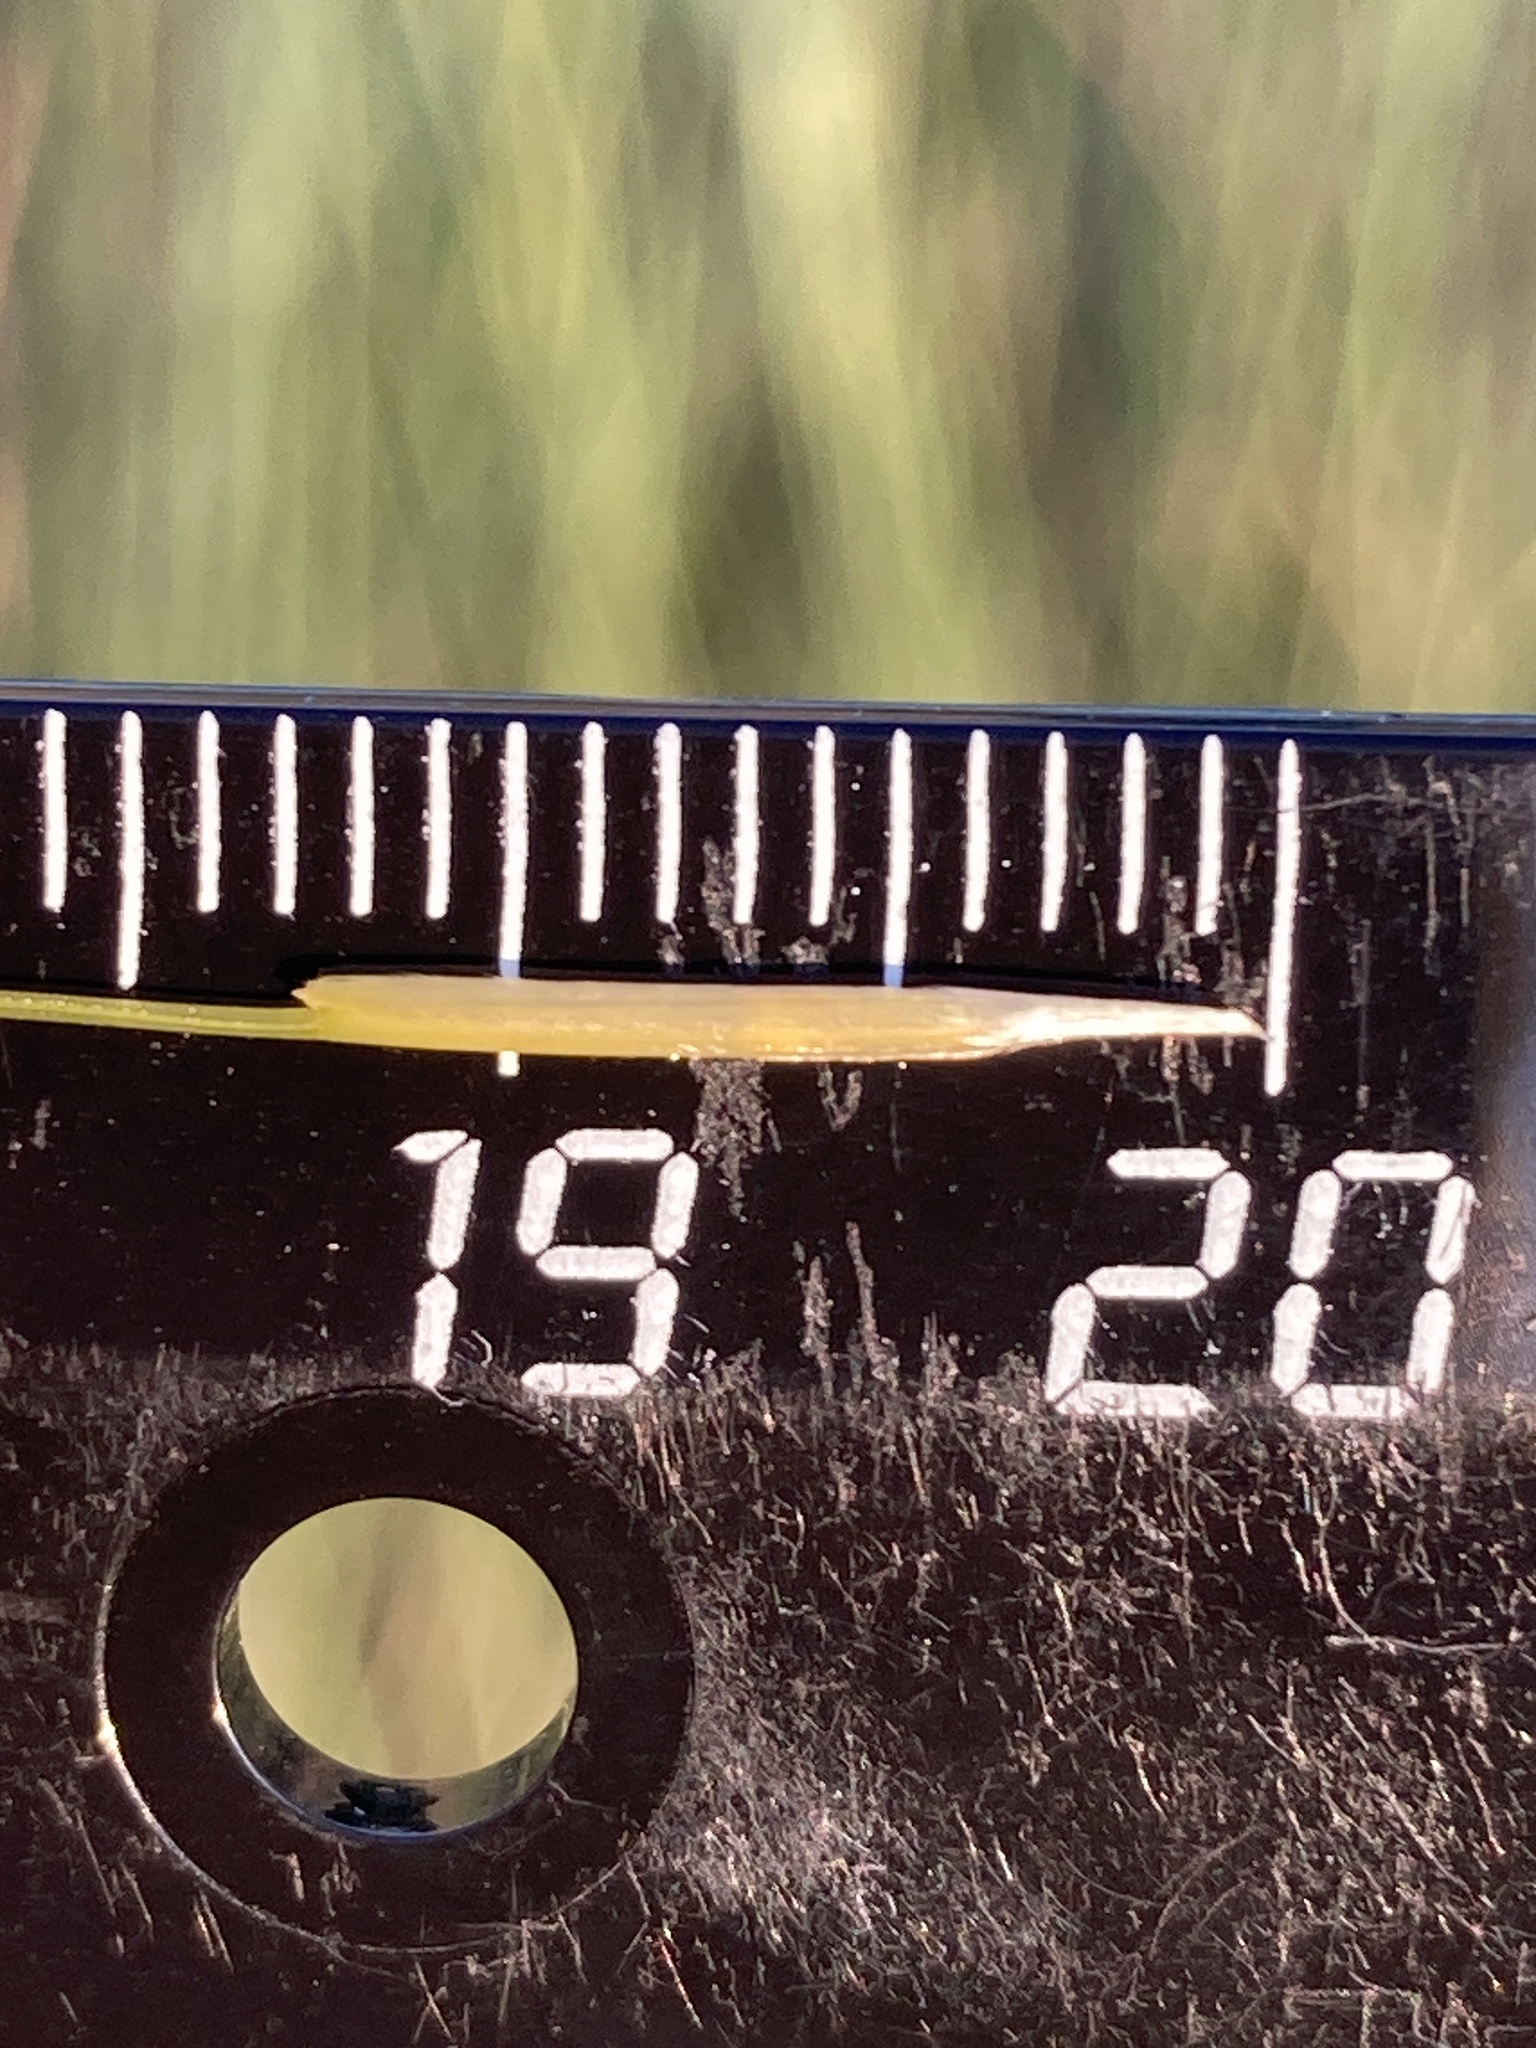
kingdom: Plantae
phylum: Tracheophyta
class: Liliopsida
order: Poales
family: Poaceae
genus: Stipa
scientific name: Stipa capillata
